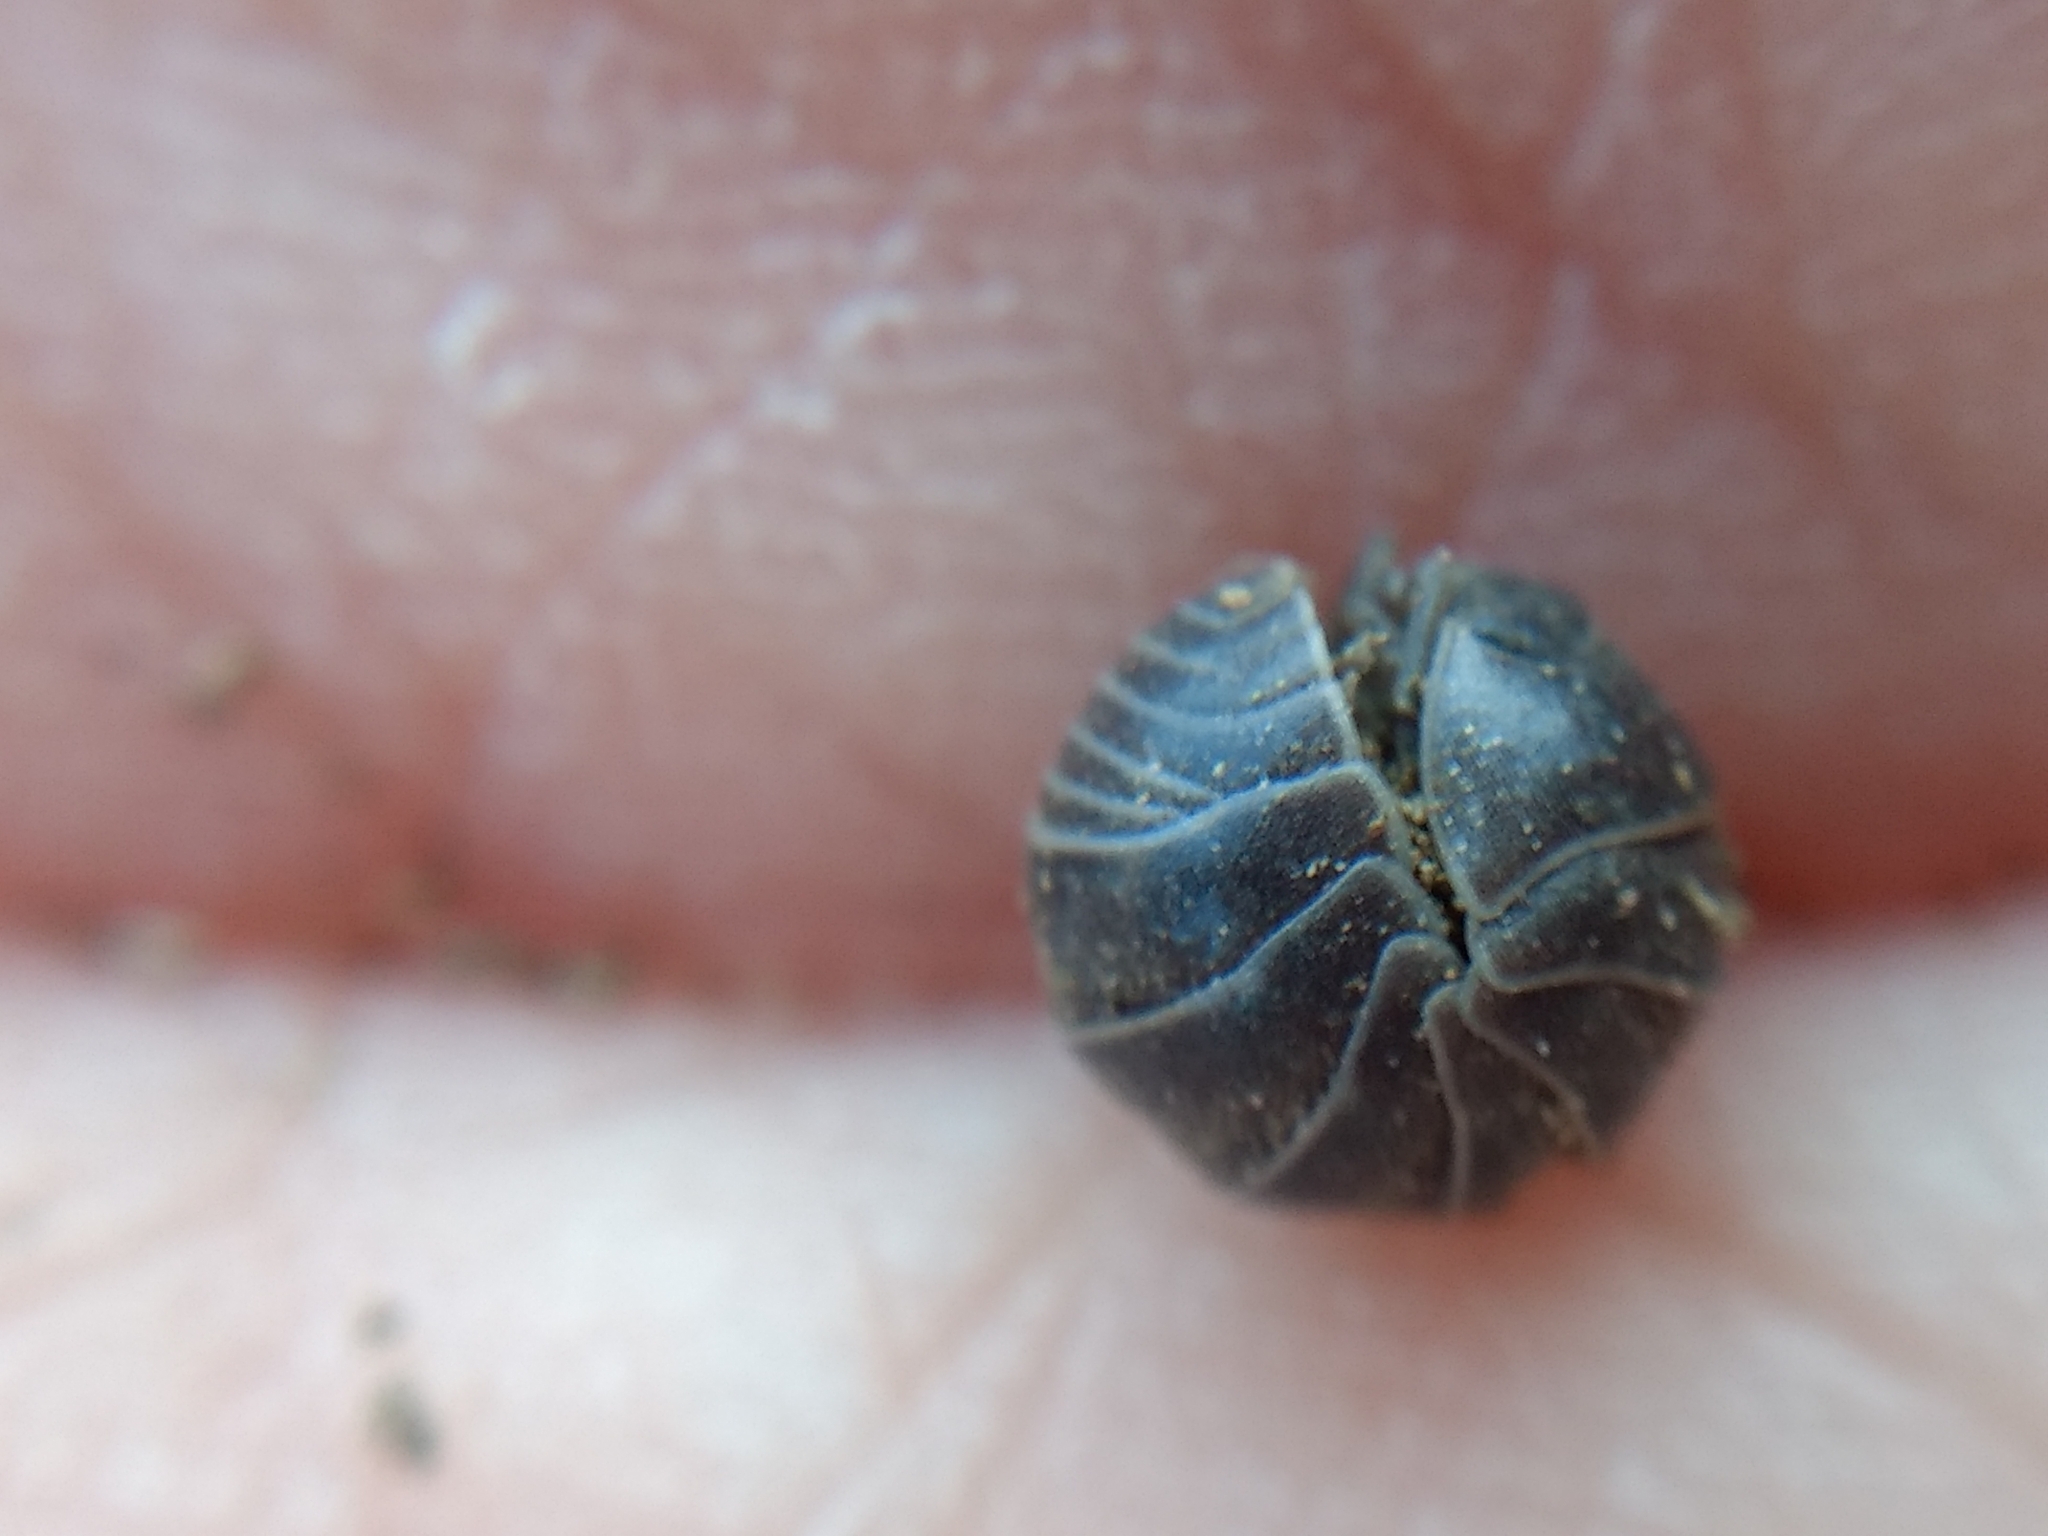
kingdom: Animalia
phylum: Arthropoda
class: Malacostraca
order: Isopoda
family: Armadillidiidae
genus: Armadillidium
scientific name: Armadillidium vulgare
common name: Common pill woodlouse
